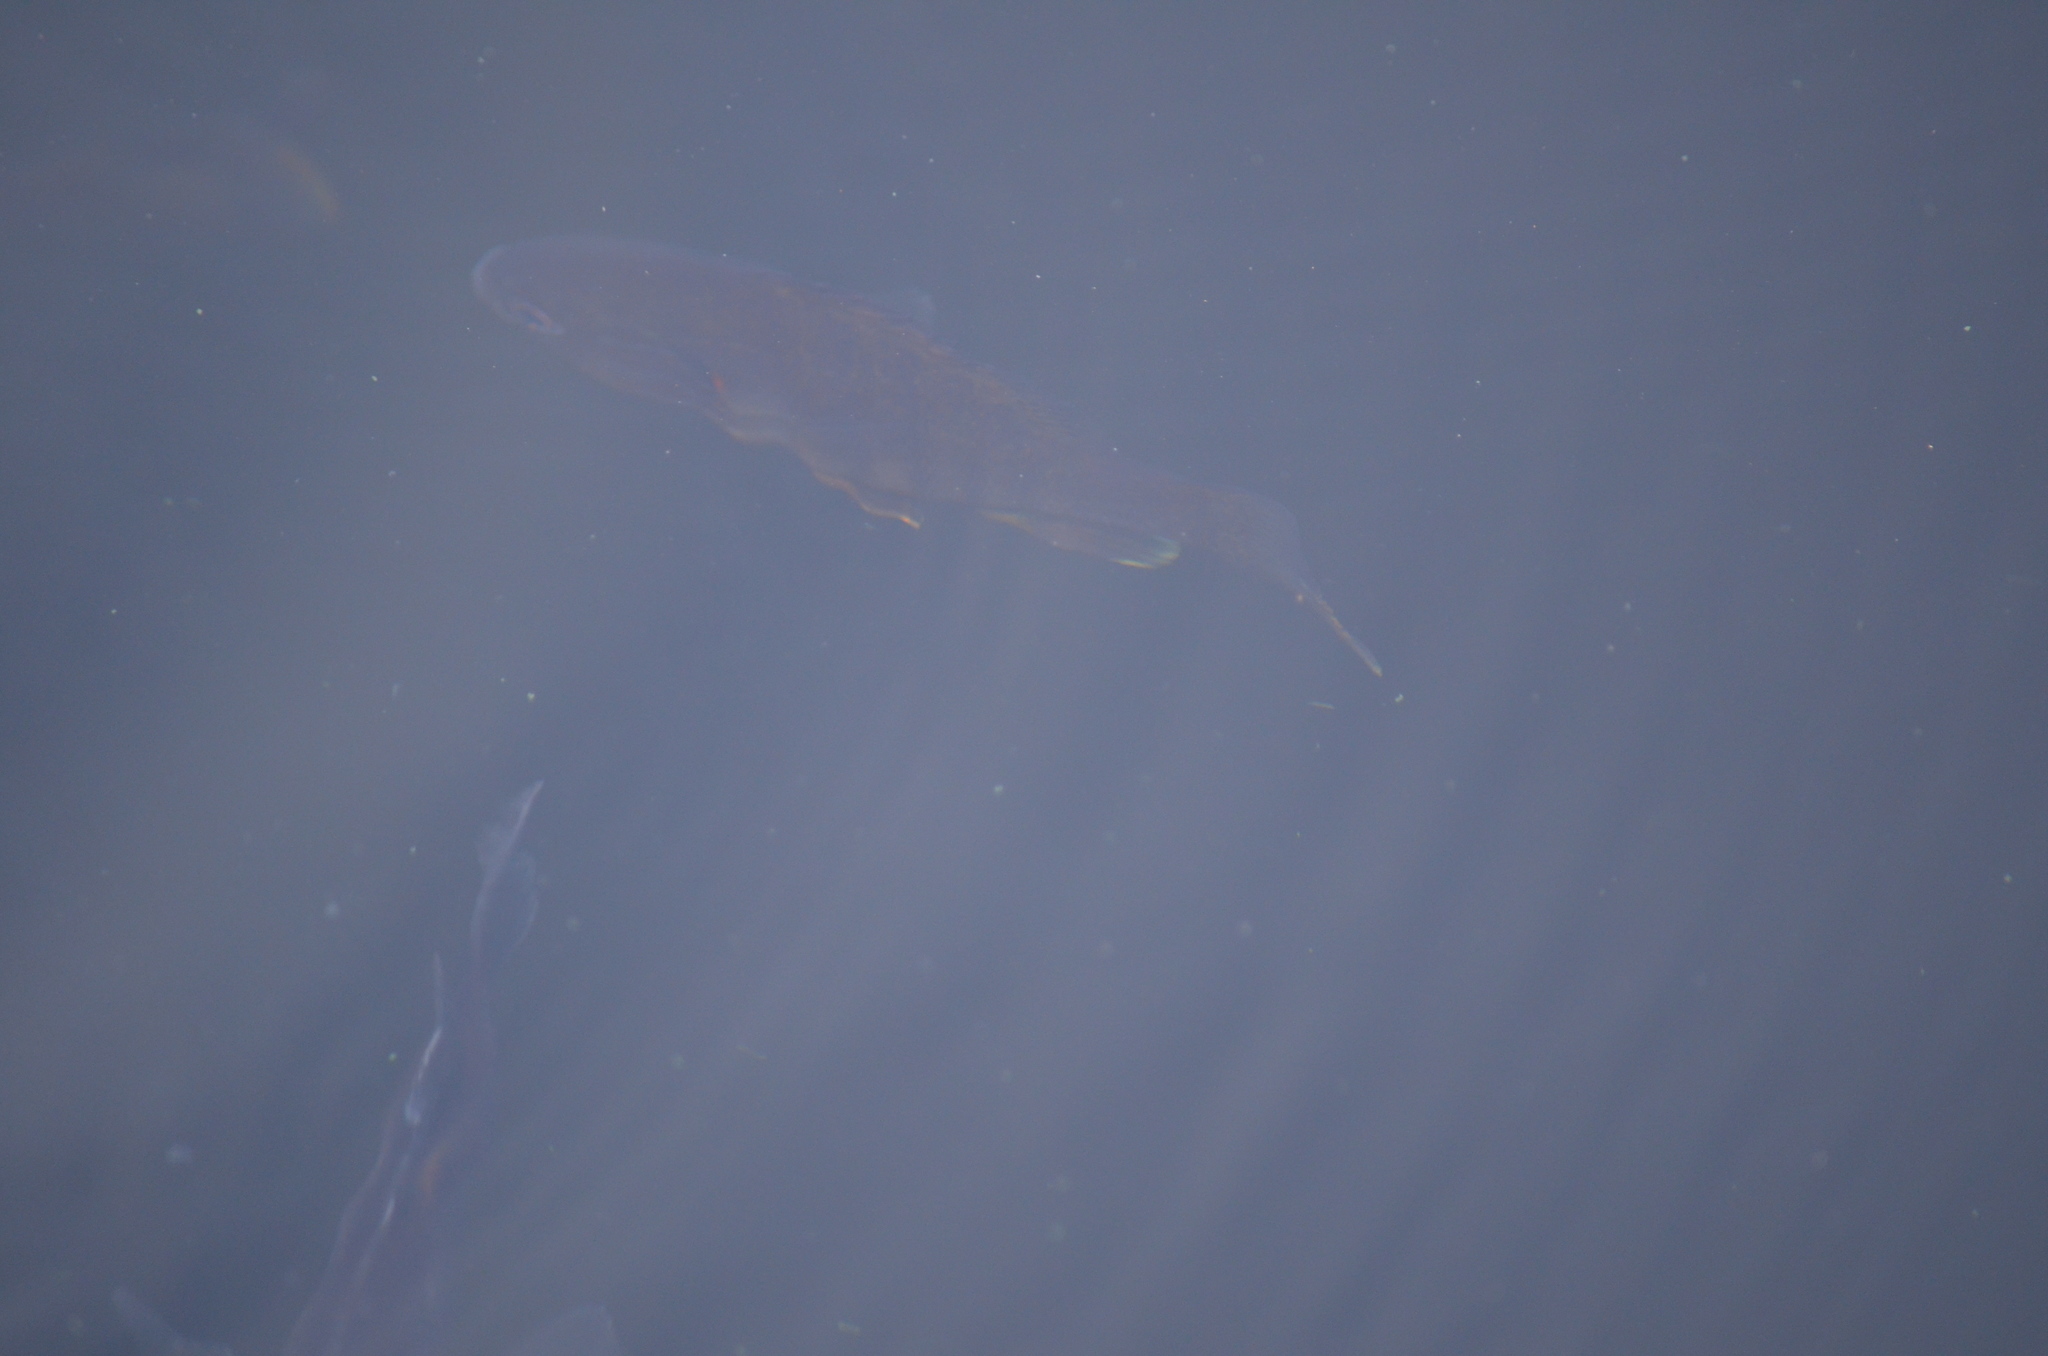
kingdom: Animalia
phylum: Chordata
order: Perciformes
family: Centrarchidae
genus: Lepomis
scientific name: Lepomis gibbosus
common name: Pumpkinseed
